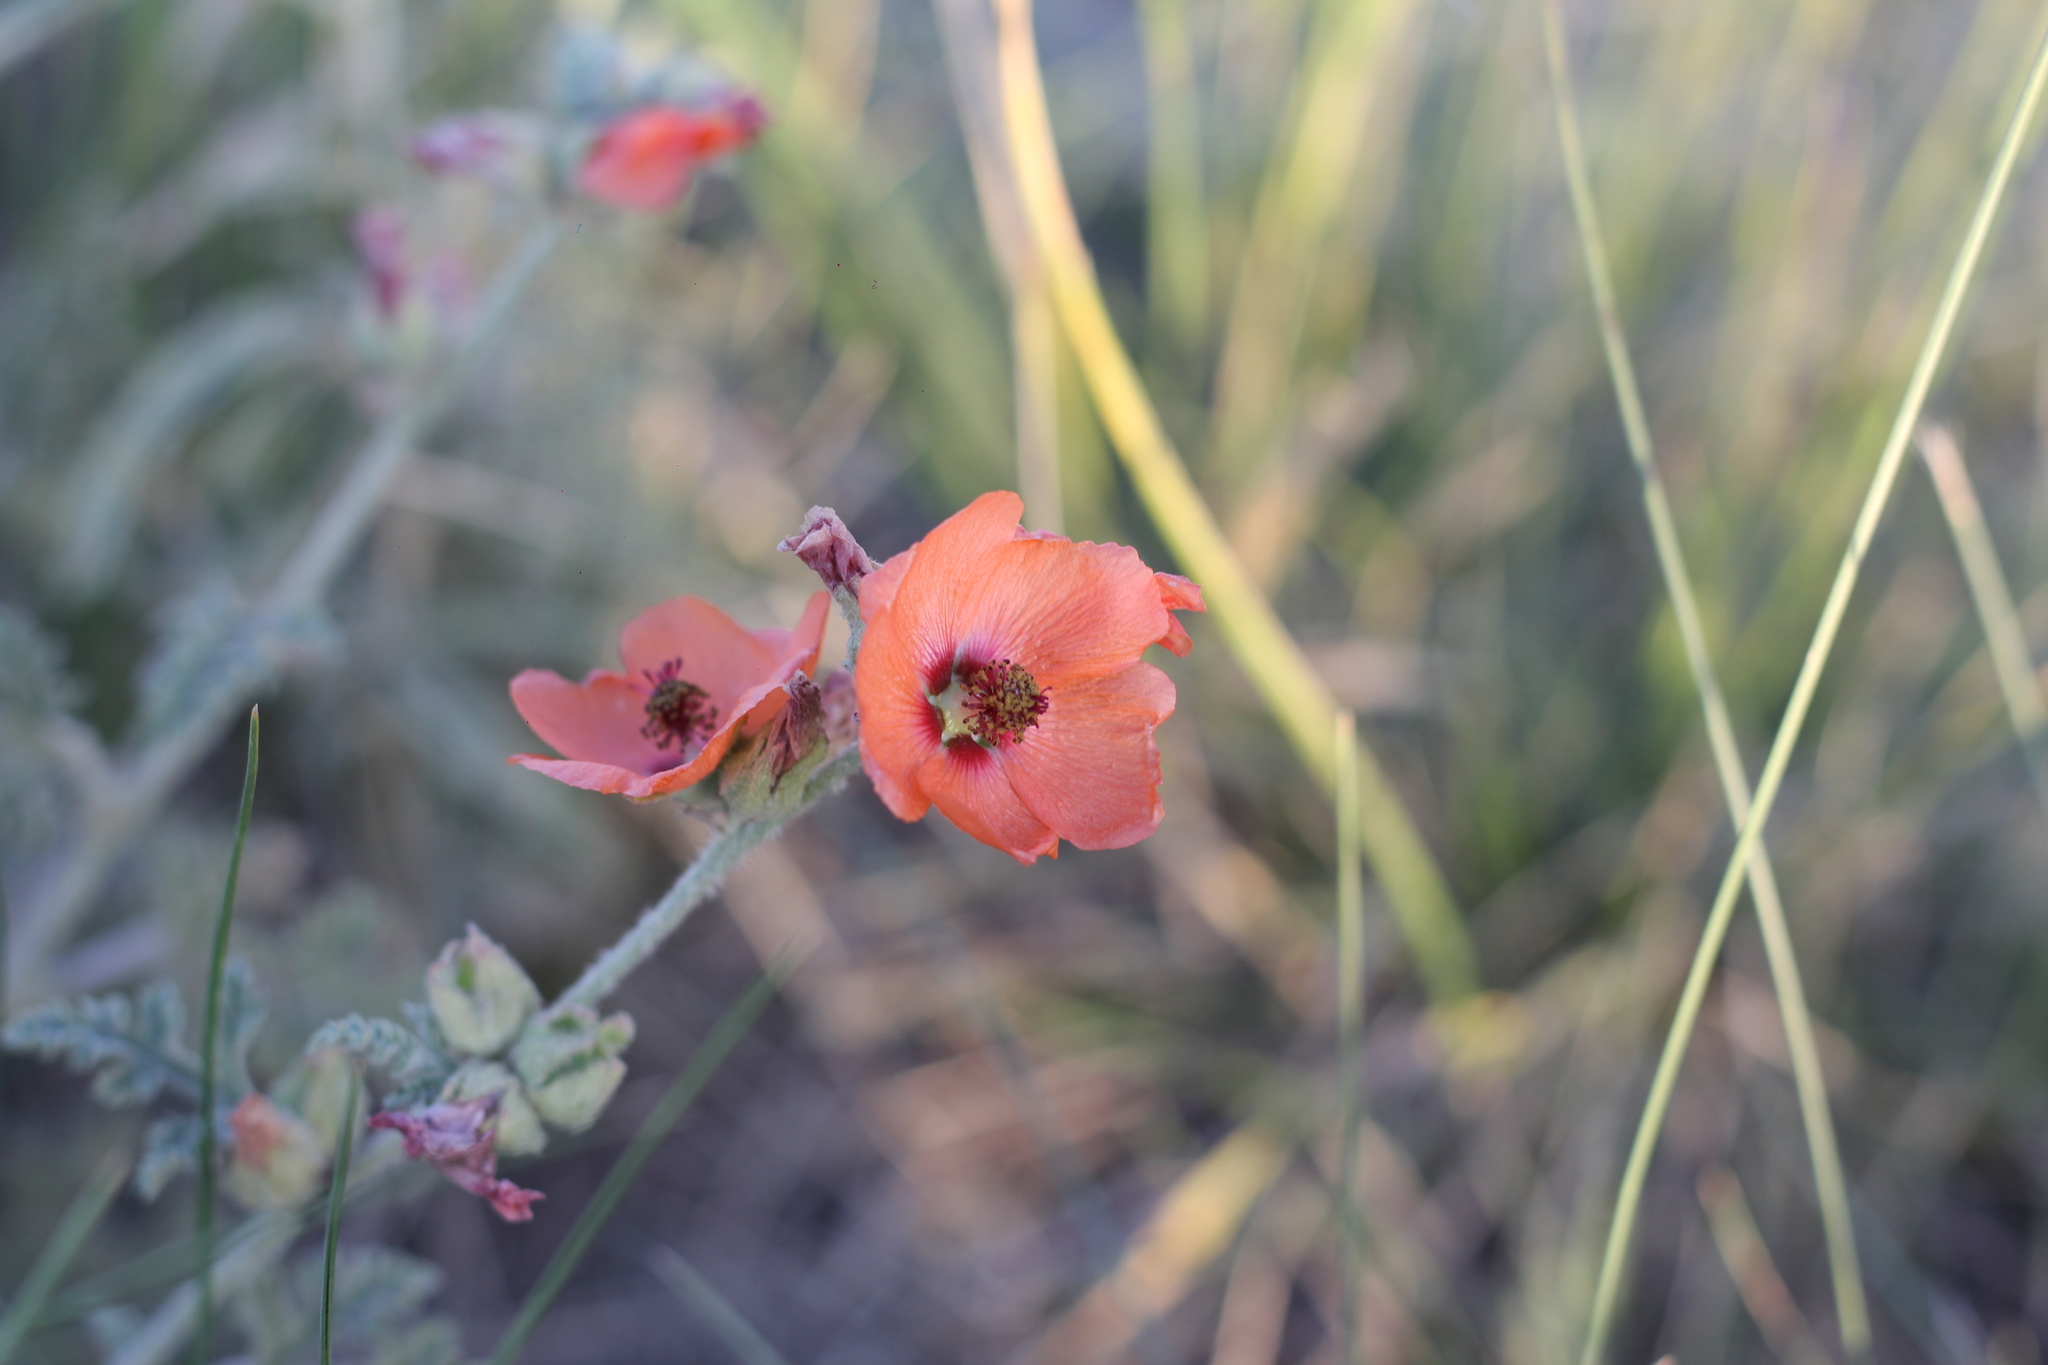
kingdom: Plantae
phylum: Tracheophyta
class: Magnoliopsida
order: Malvales
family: Malvaceae
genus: Sphaeralcea
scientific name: Sphaeralcea australis
